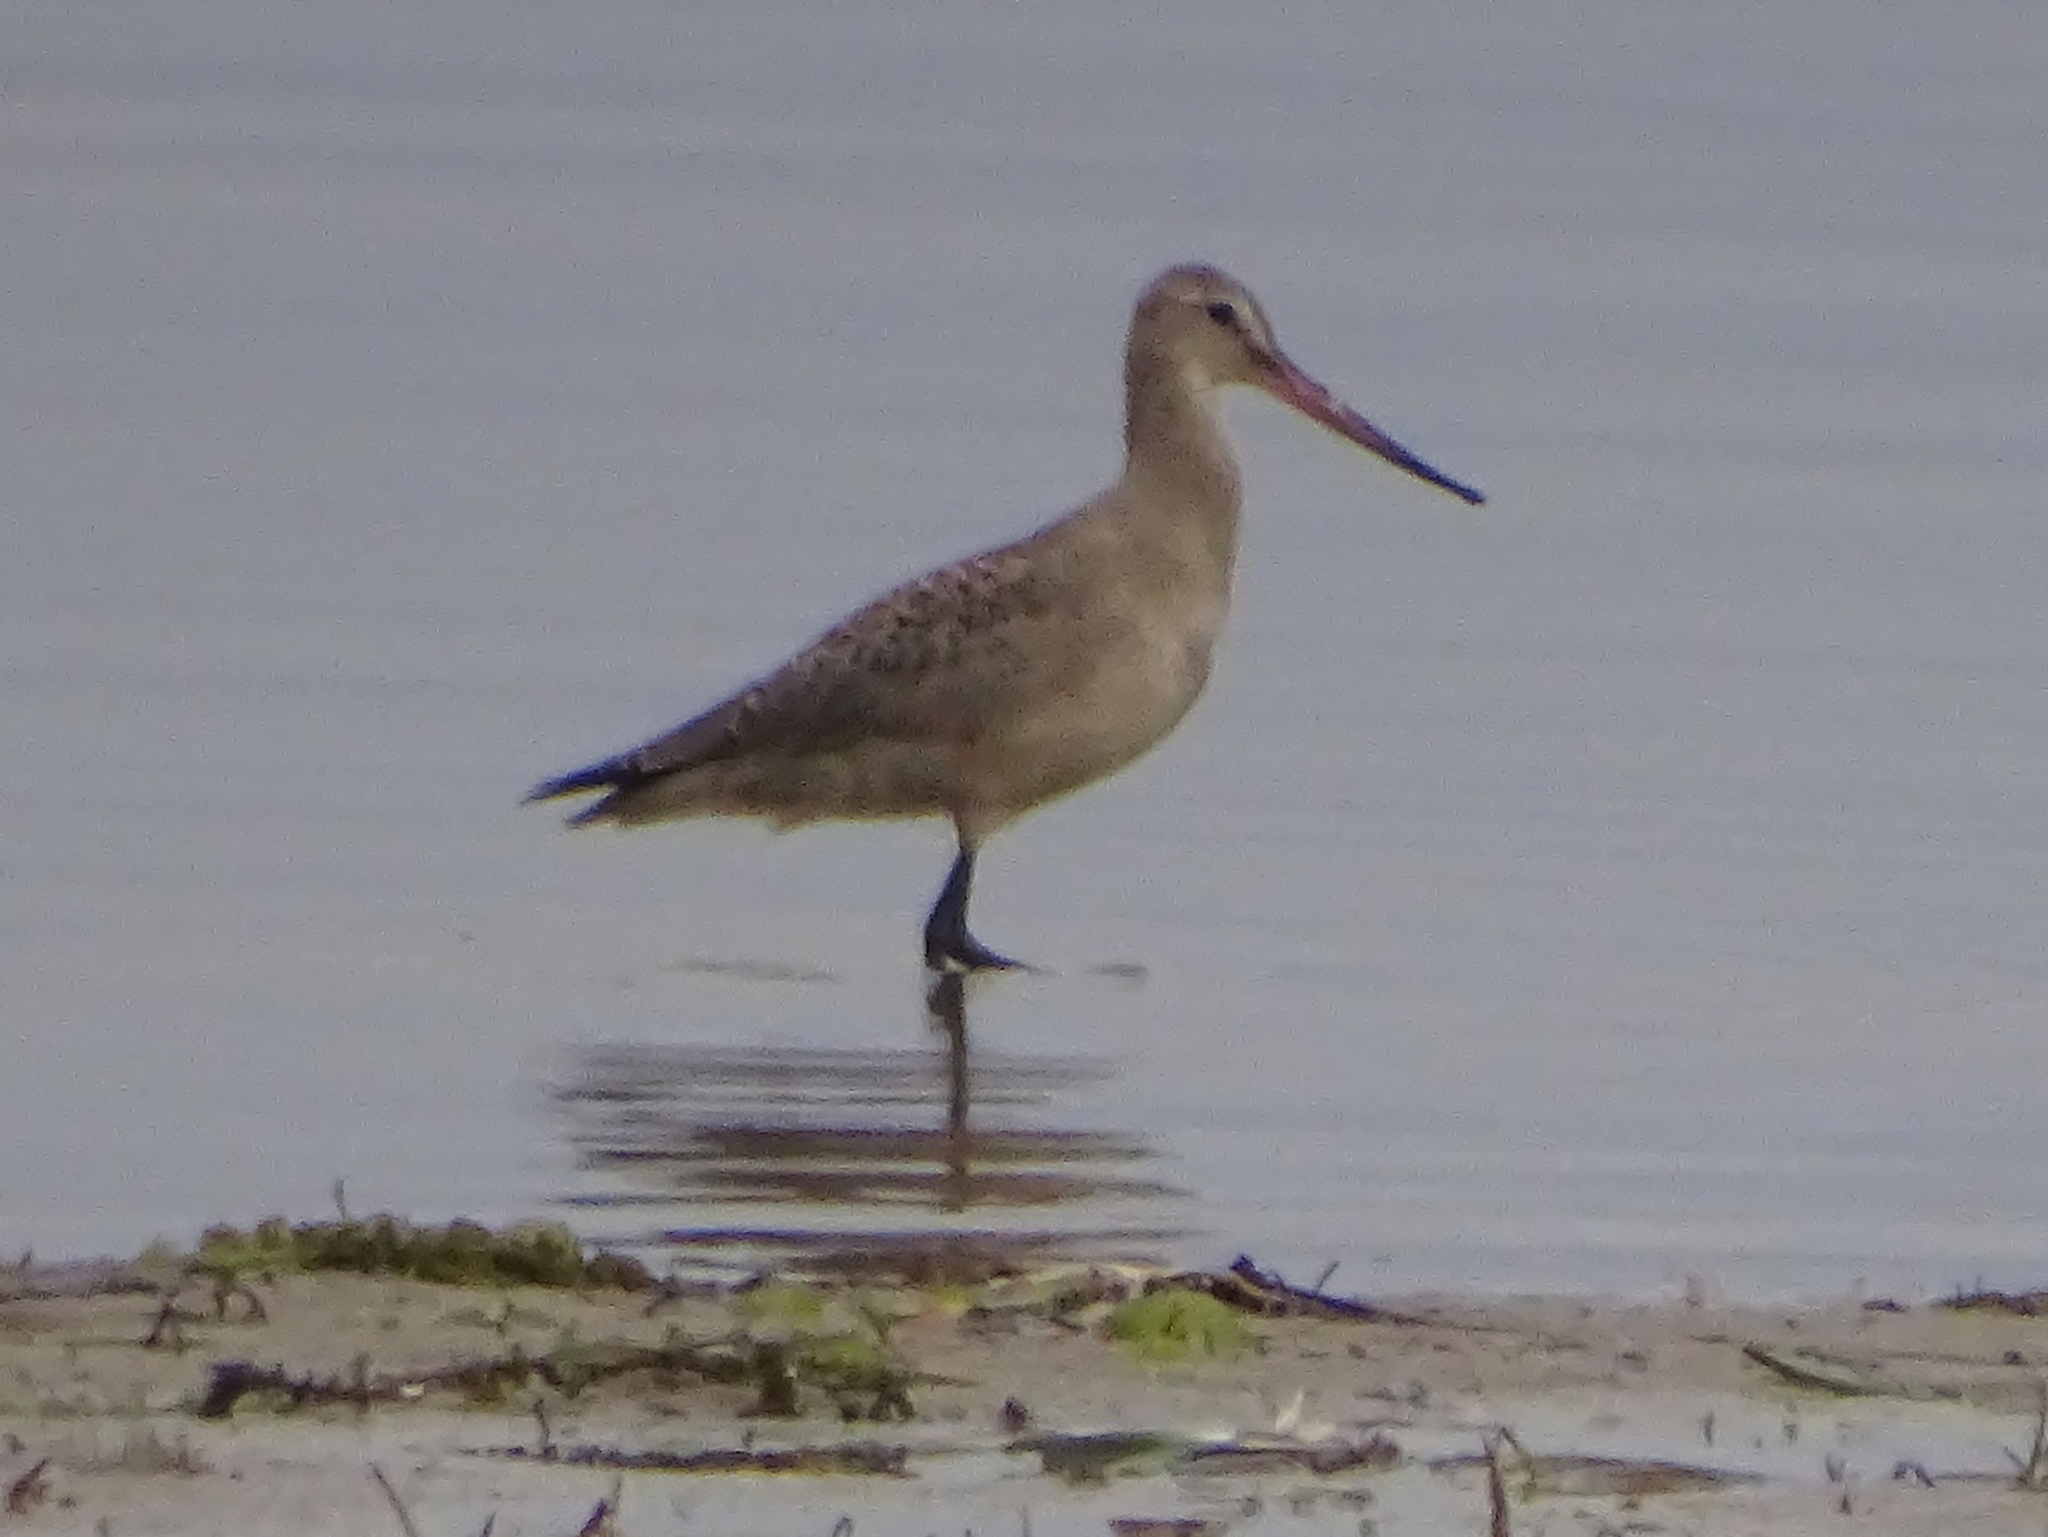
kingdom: Animalia
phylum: Chordata
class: Aves
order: Charadriiformes
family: Scolopacidae
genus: Limosa
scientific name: Limosa haemastica
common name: Hudsonian godwit
